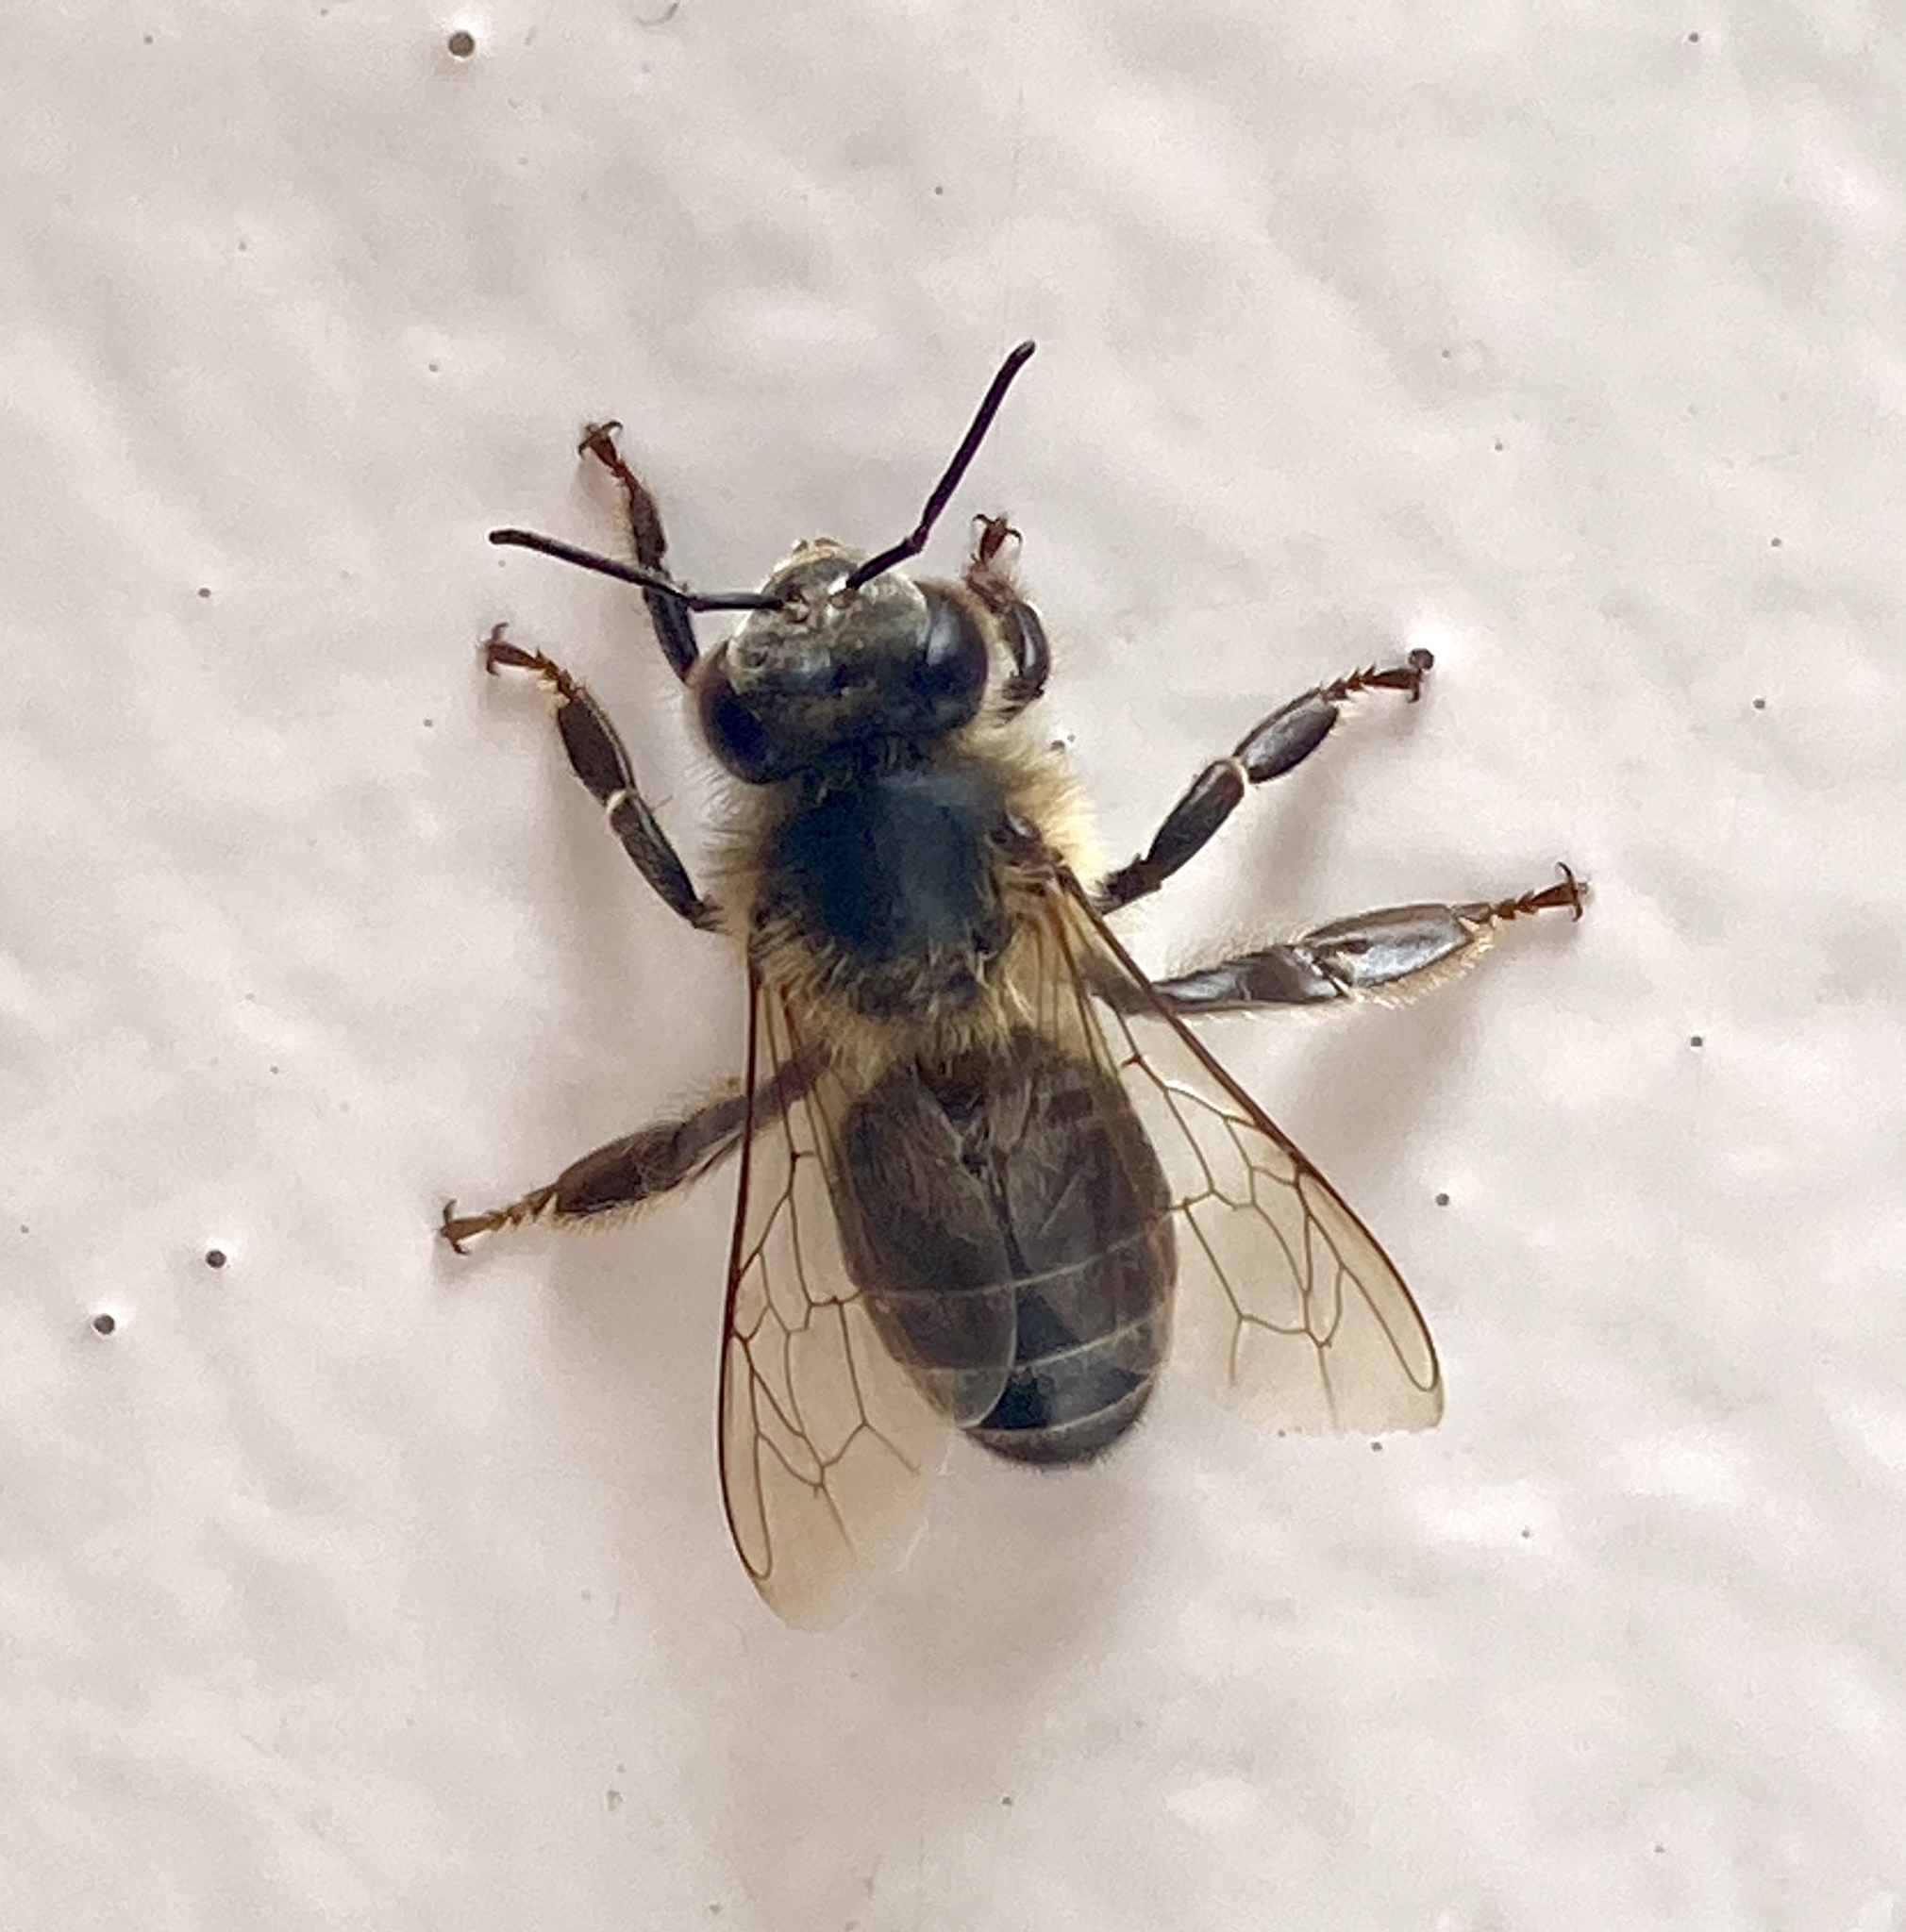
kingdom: Animalia
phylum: Arthropoda
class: Insecta
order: Hymenoptera
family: Apidae
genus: Apis
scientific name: Apis mellifera
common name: Honey bee
